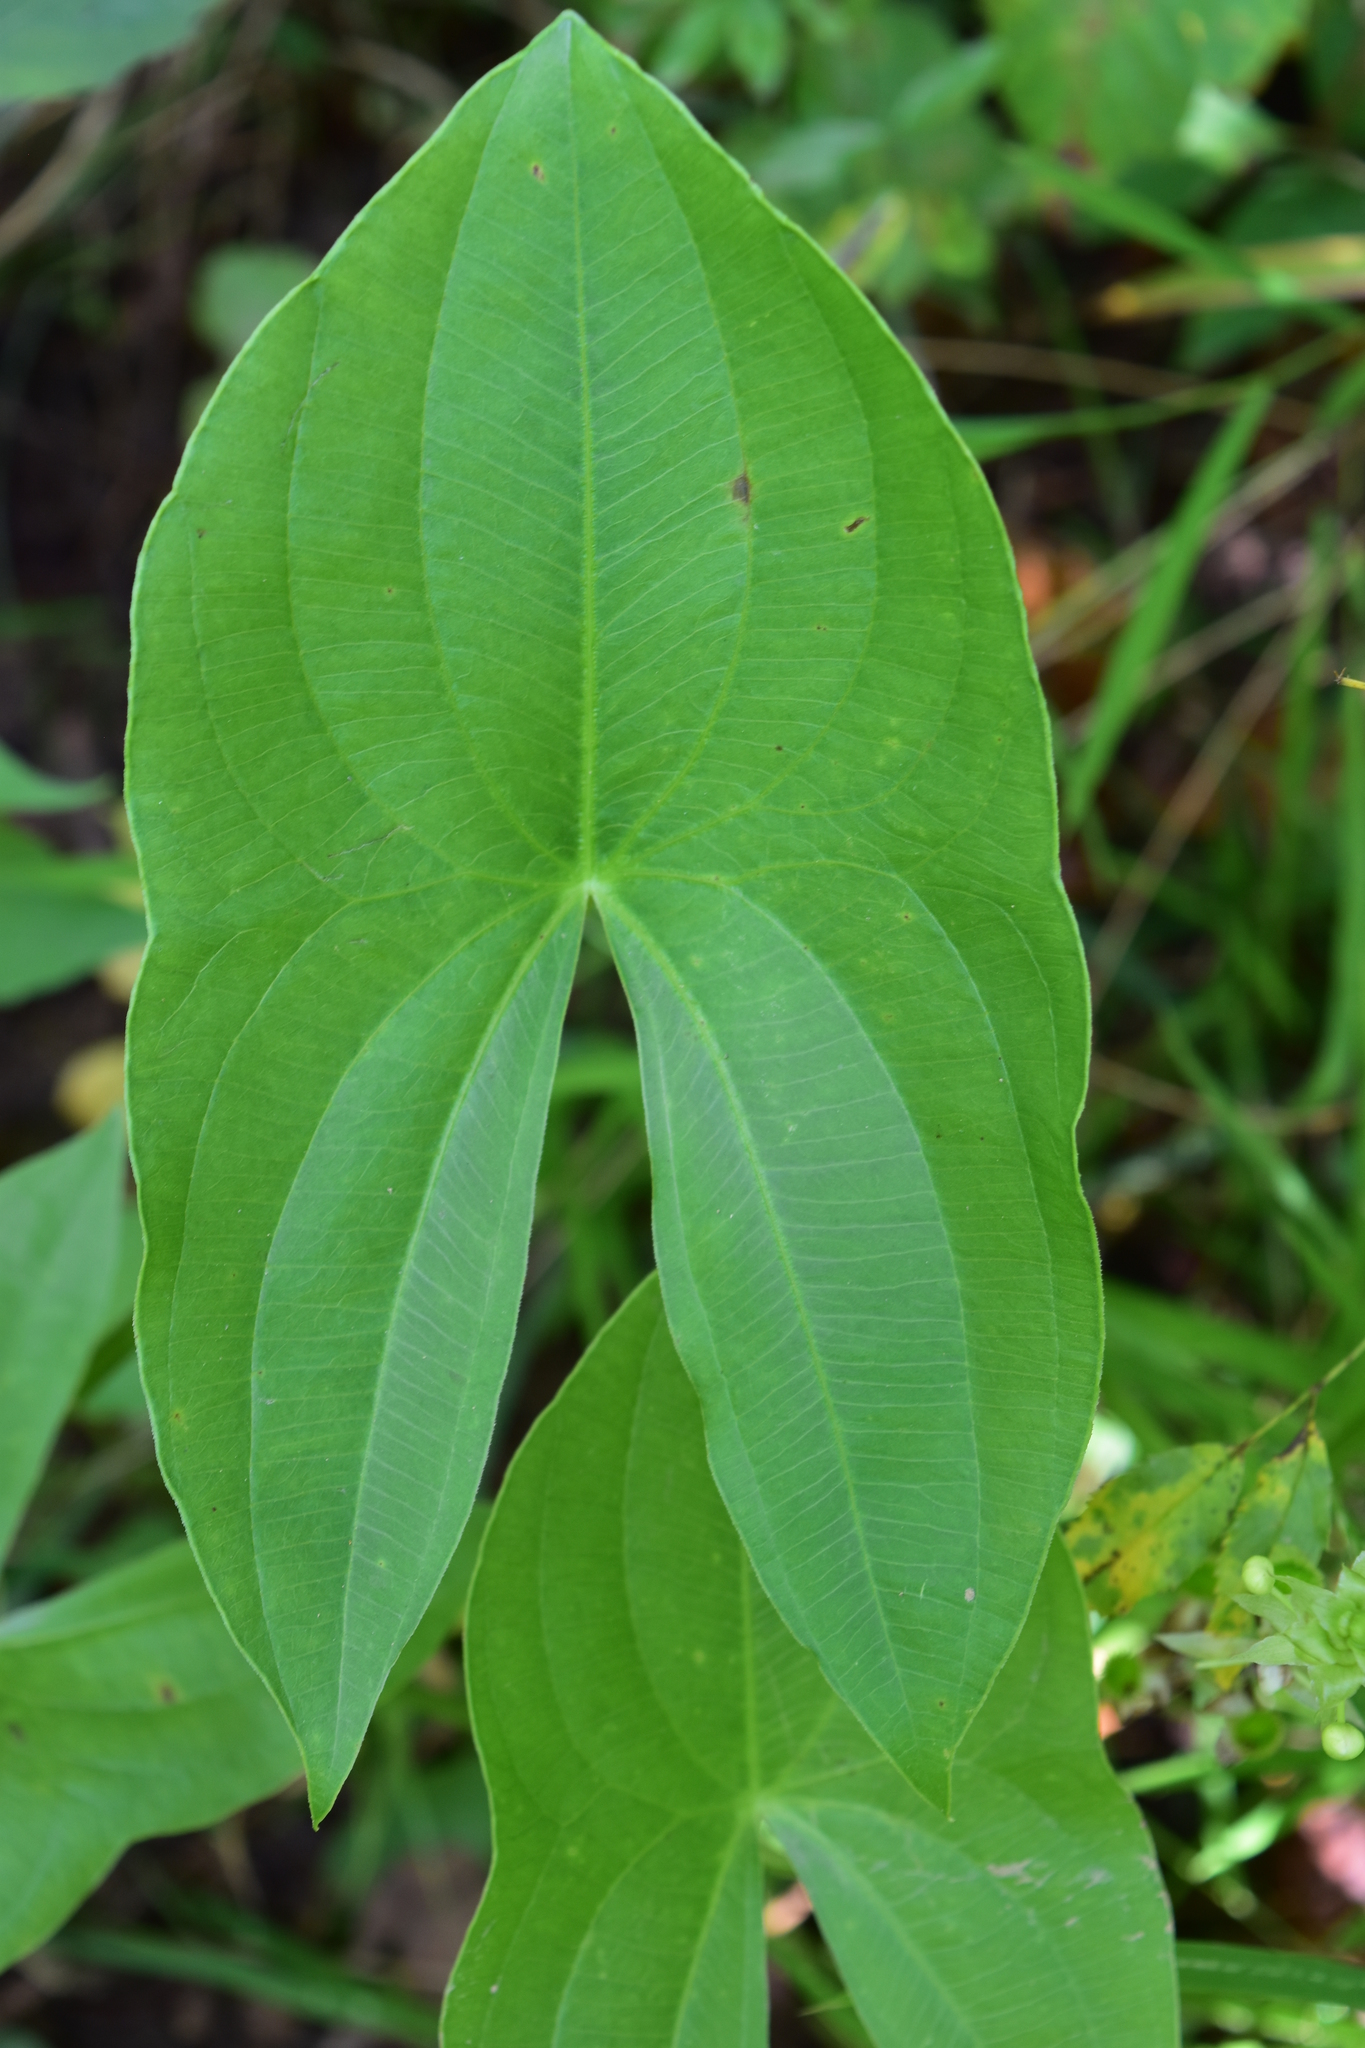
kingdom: Plantae
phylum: Tracheophyta
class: Liliopsida
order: Alismatales
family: Alismataceae
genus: Sagittaria
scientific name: Sagittaria latifolia
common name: Duck-potato
